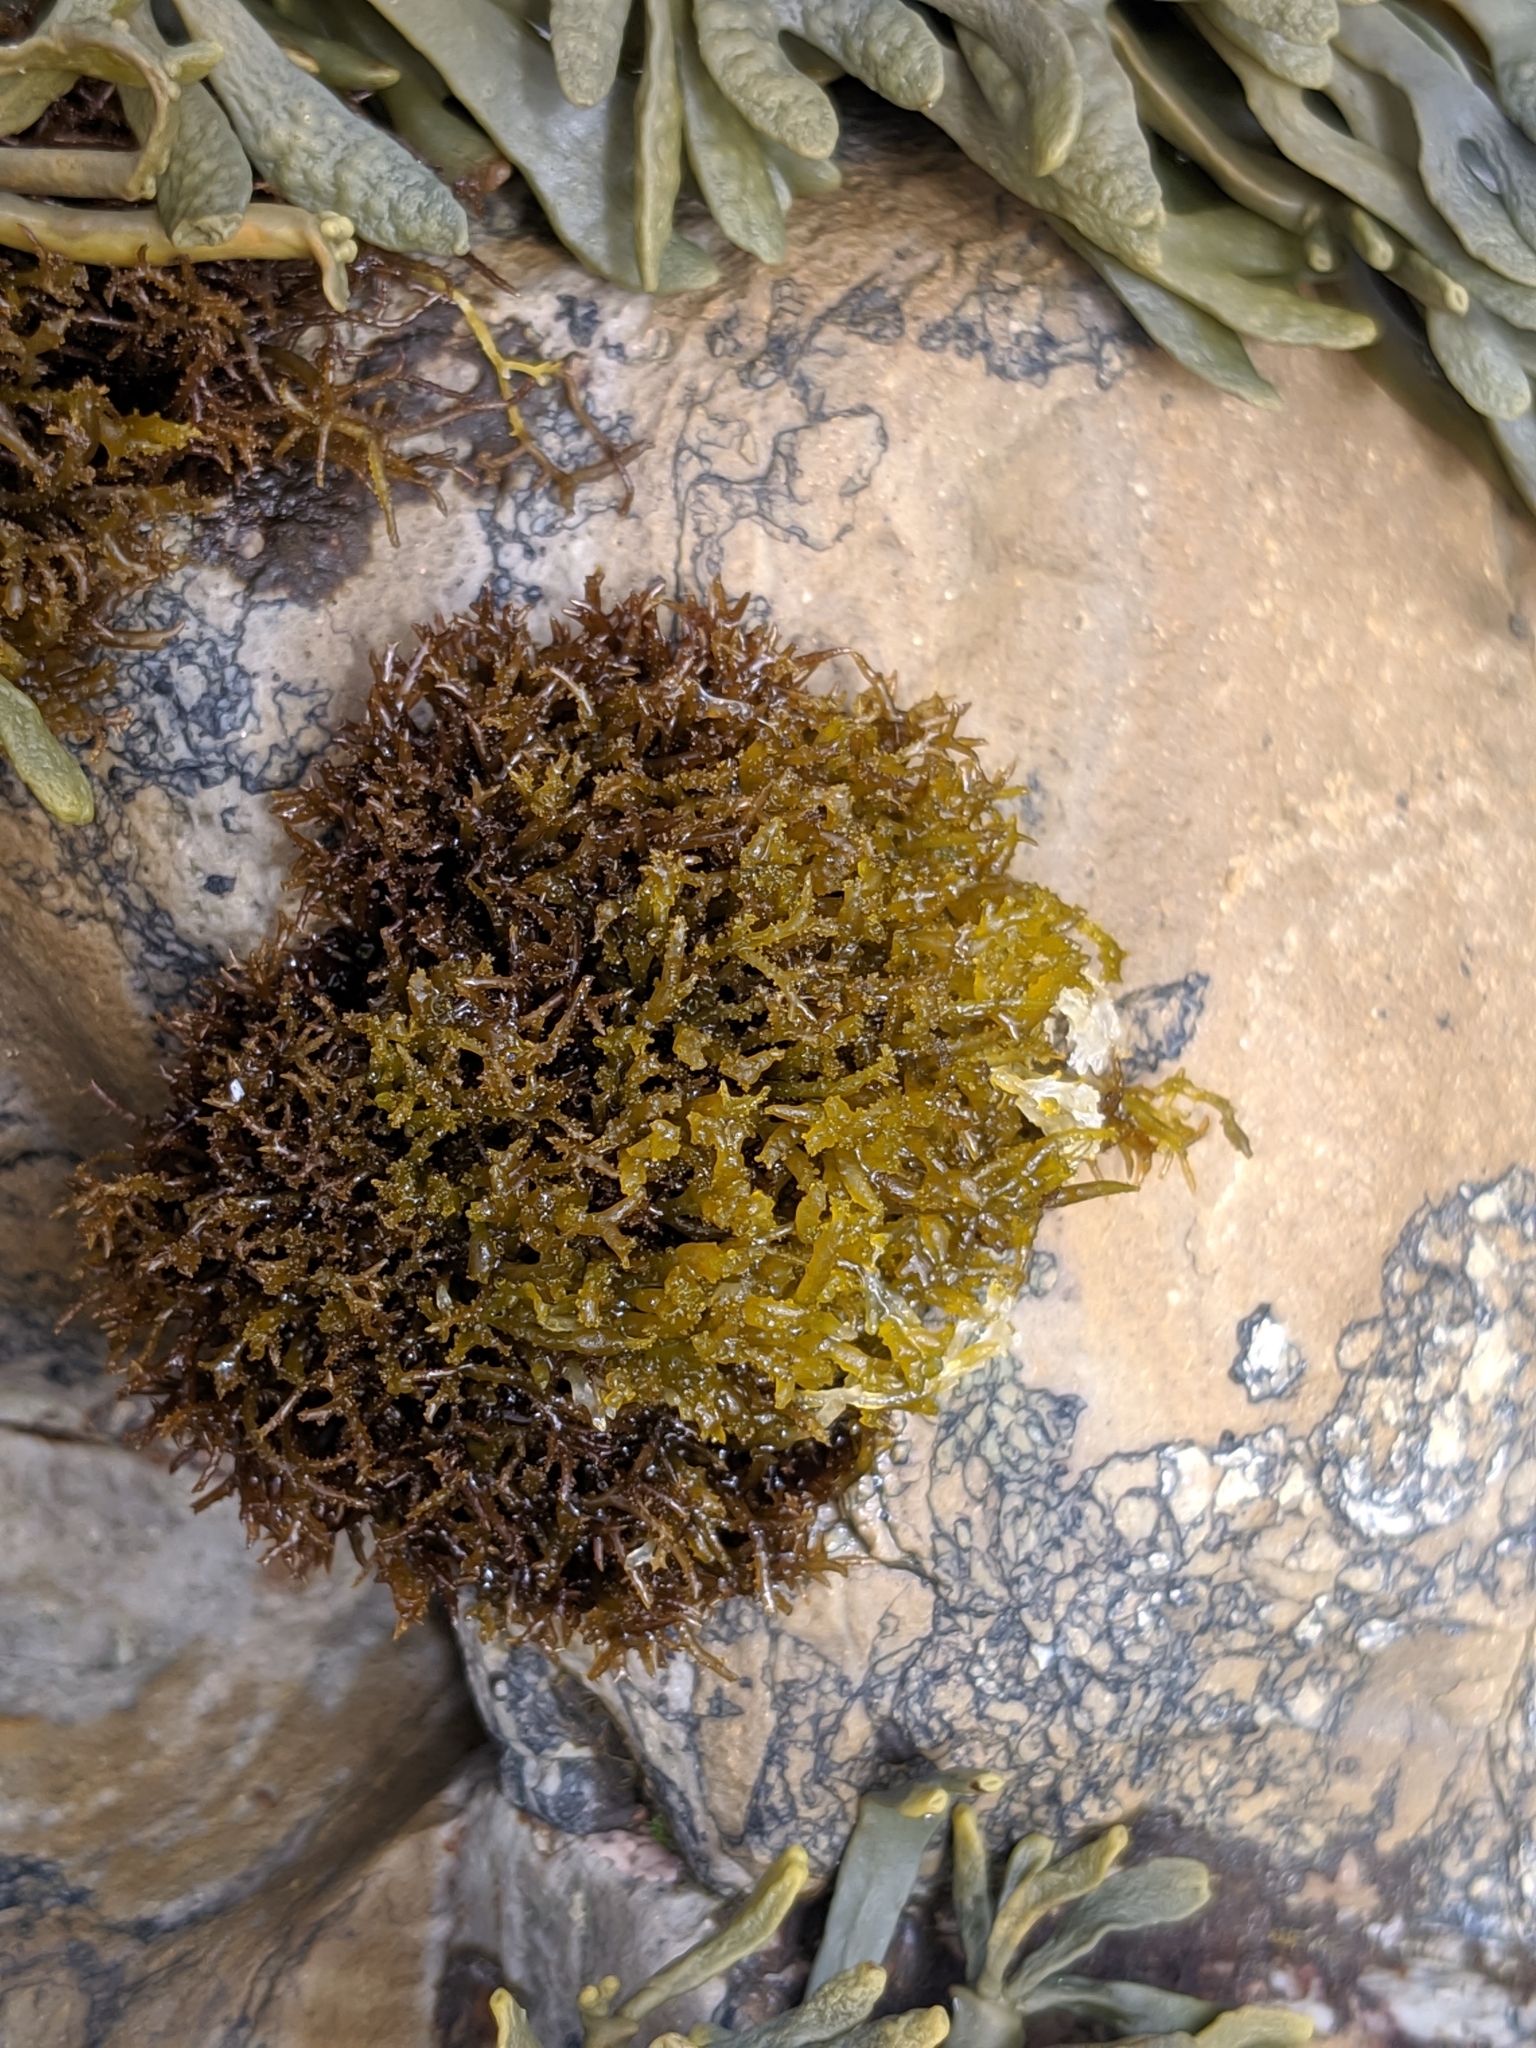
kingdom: Plantae
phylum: Rhodophyta
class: Florideophyceae
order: Gigartinales
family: Endocladiaceae
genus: Endocladia
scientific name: Endocladia muricata
